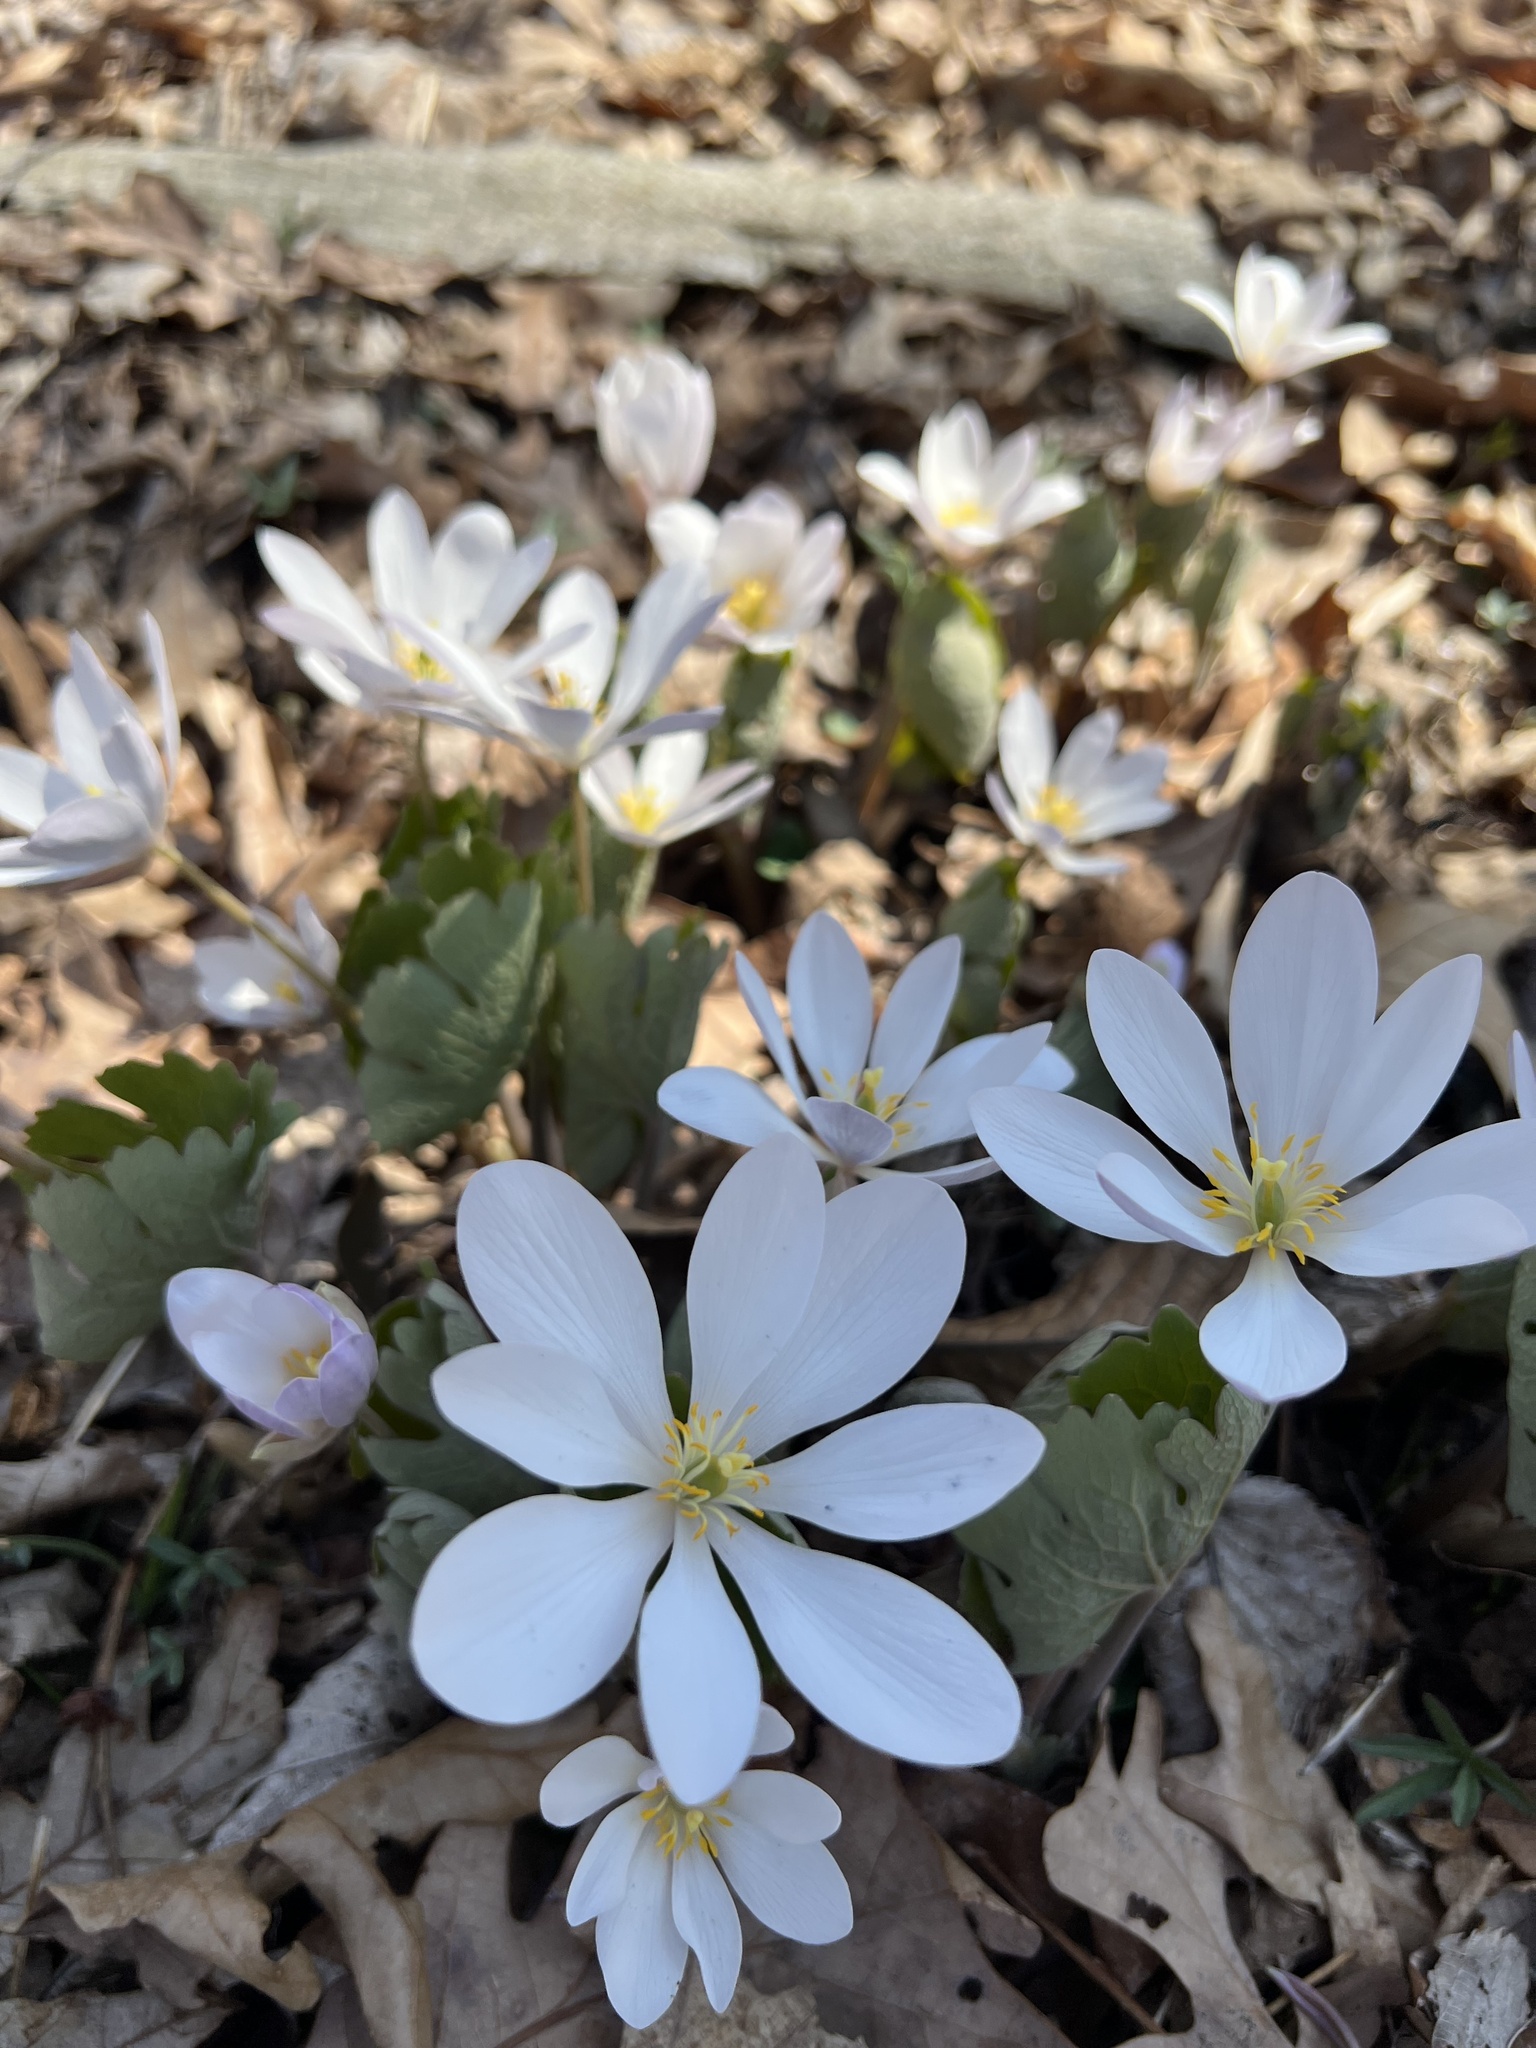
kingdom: Plantae
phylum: Tracheophyta
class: Magnoliopsida
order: Ranunculales
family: Papaveraceae
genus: Sanguinaria
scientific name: Sanguinaria canadensis
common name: Bloodroot
